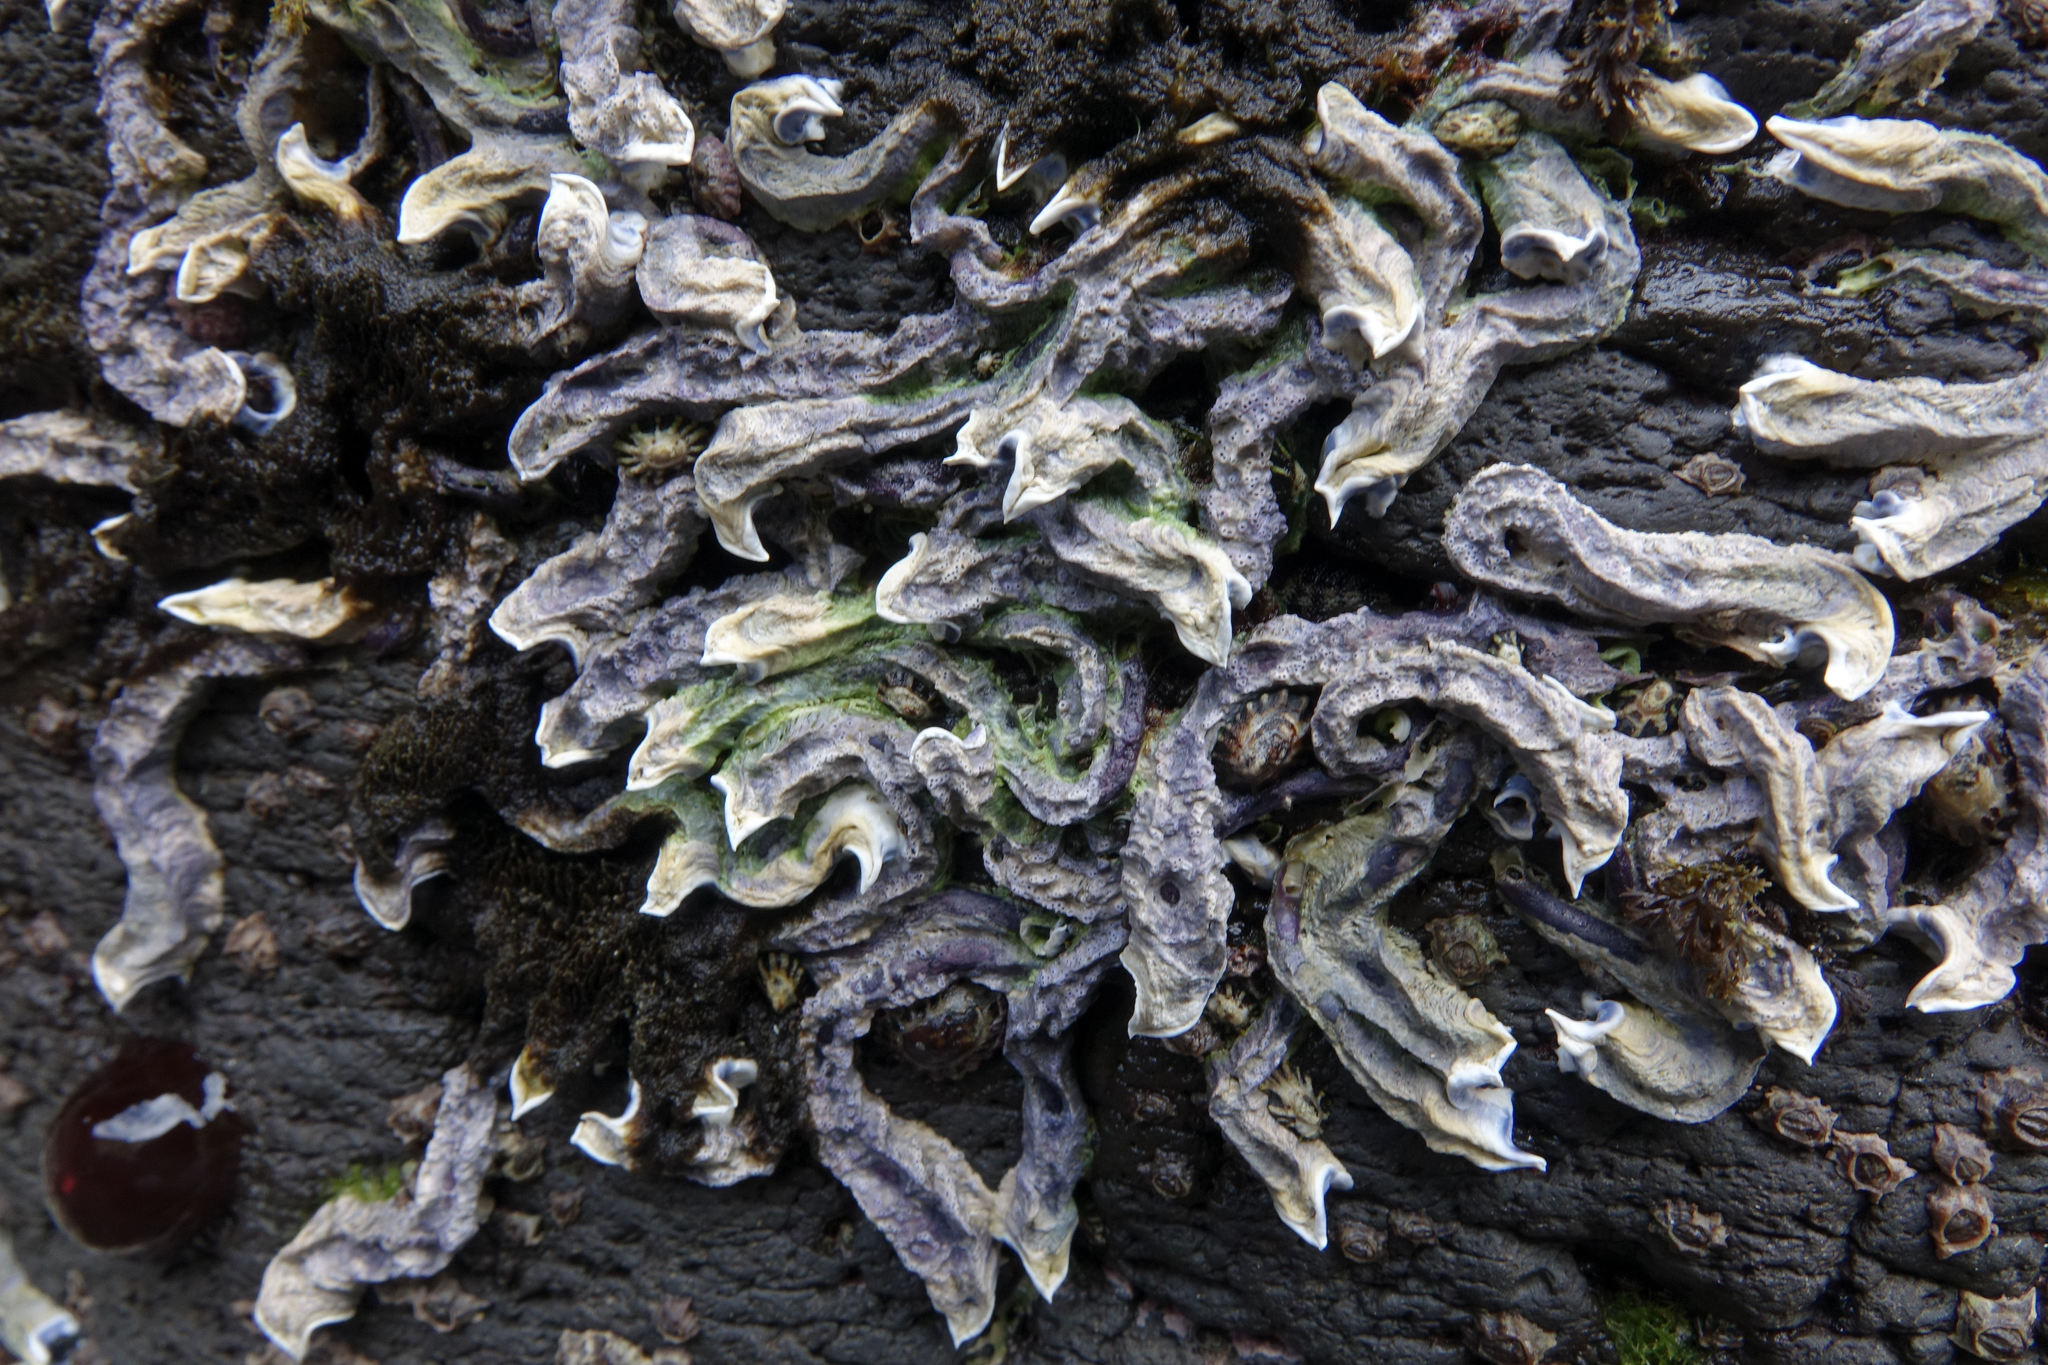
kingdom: Animalia
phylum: Annelida
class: Polychaeta
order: Sabellida
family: Serpulidae
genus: Spirobranchus
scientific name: Spirobranchus cariniferus
